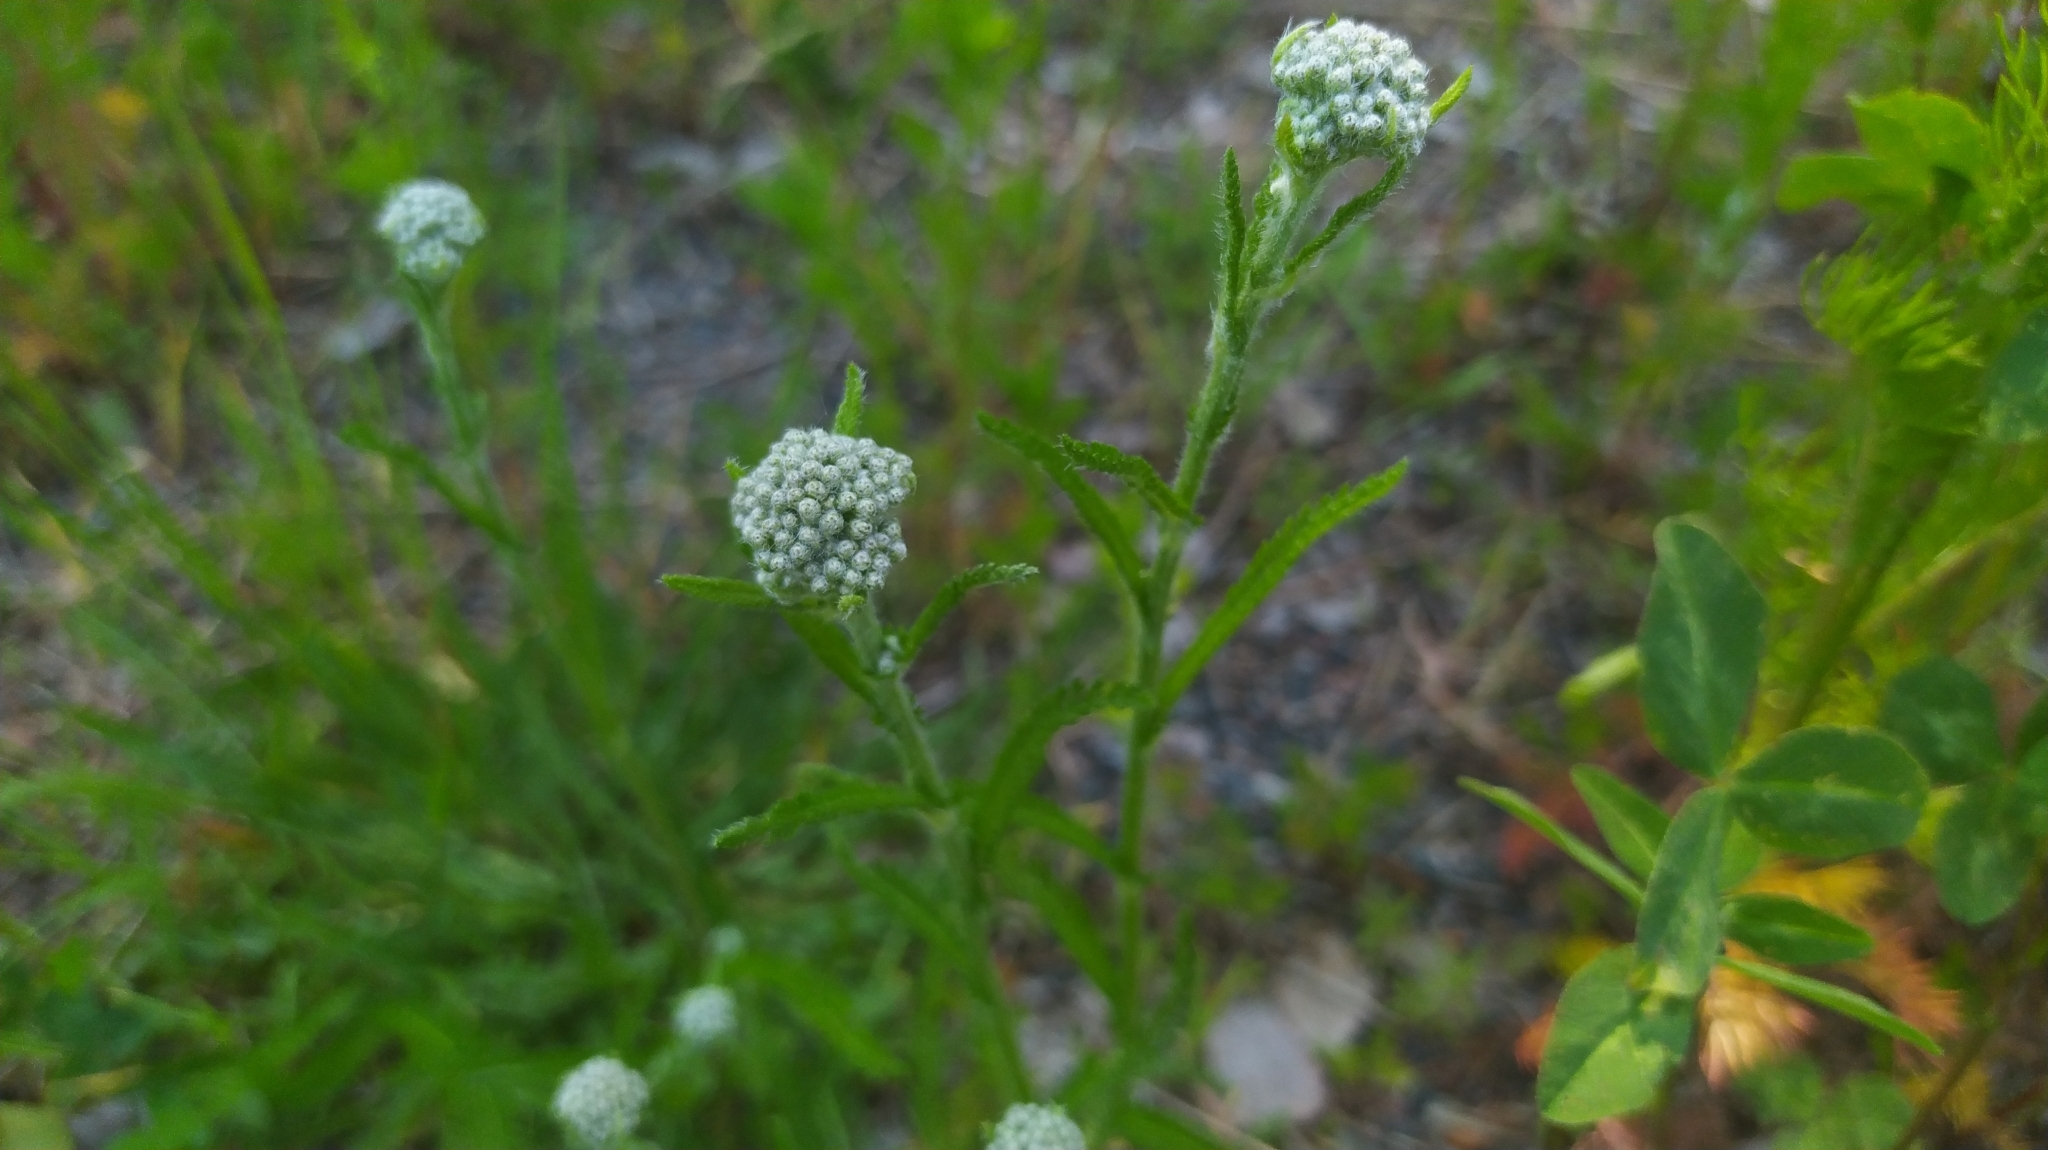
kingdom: Plantae
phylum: Tracheophyta
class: Magnoliopsida
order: Asterales
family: Asteraceae
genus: Achillea
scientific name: Achillea millefolium
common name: Yarrow
